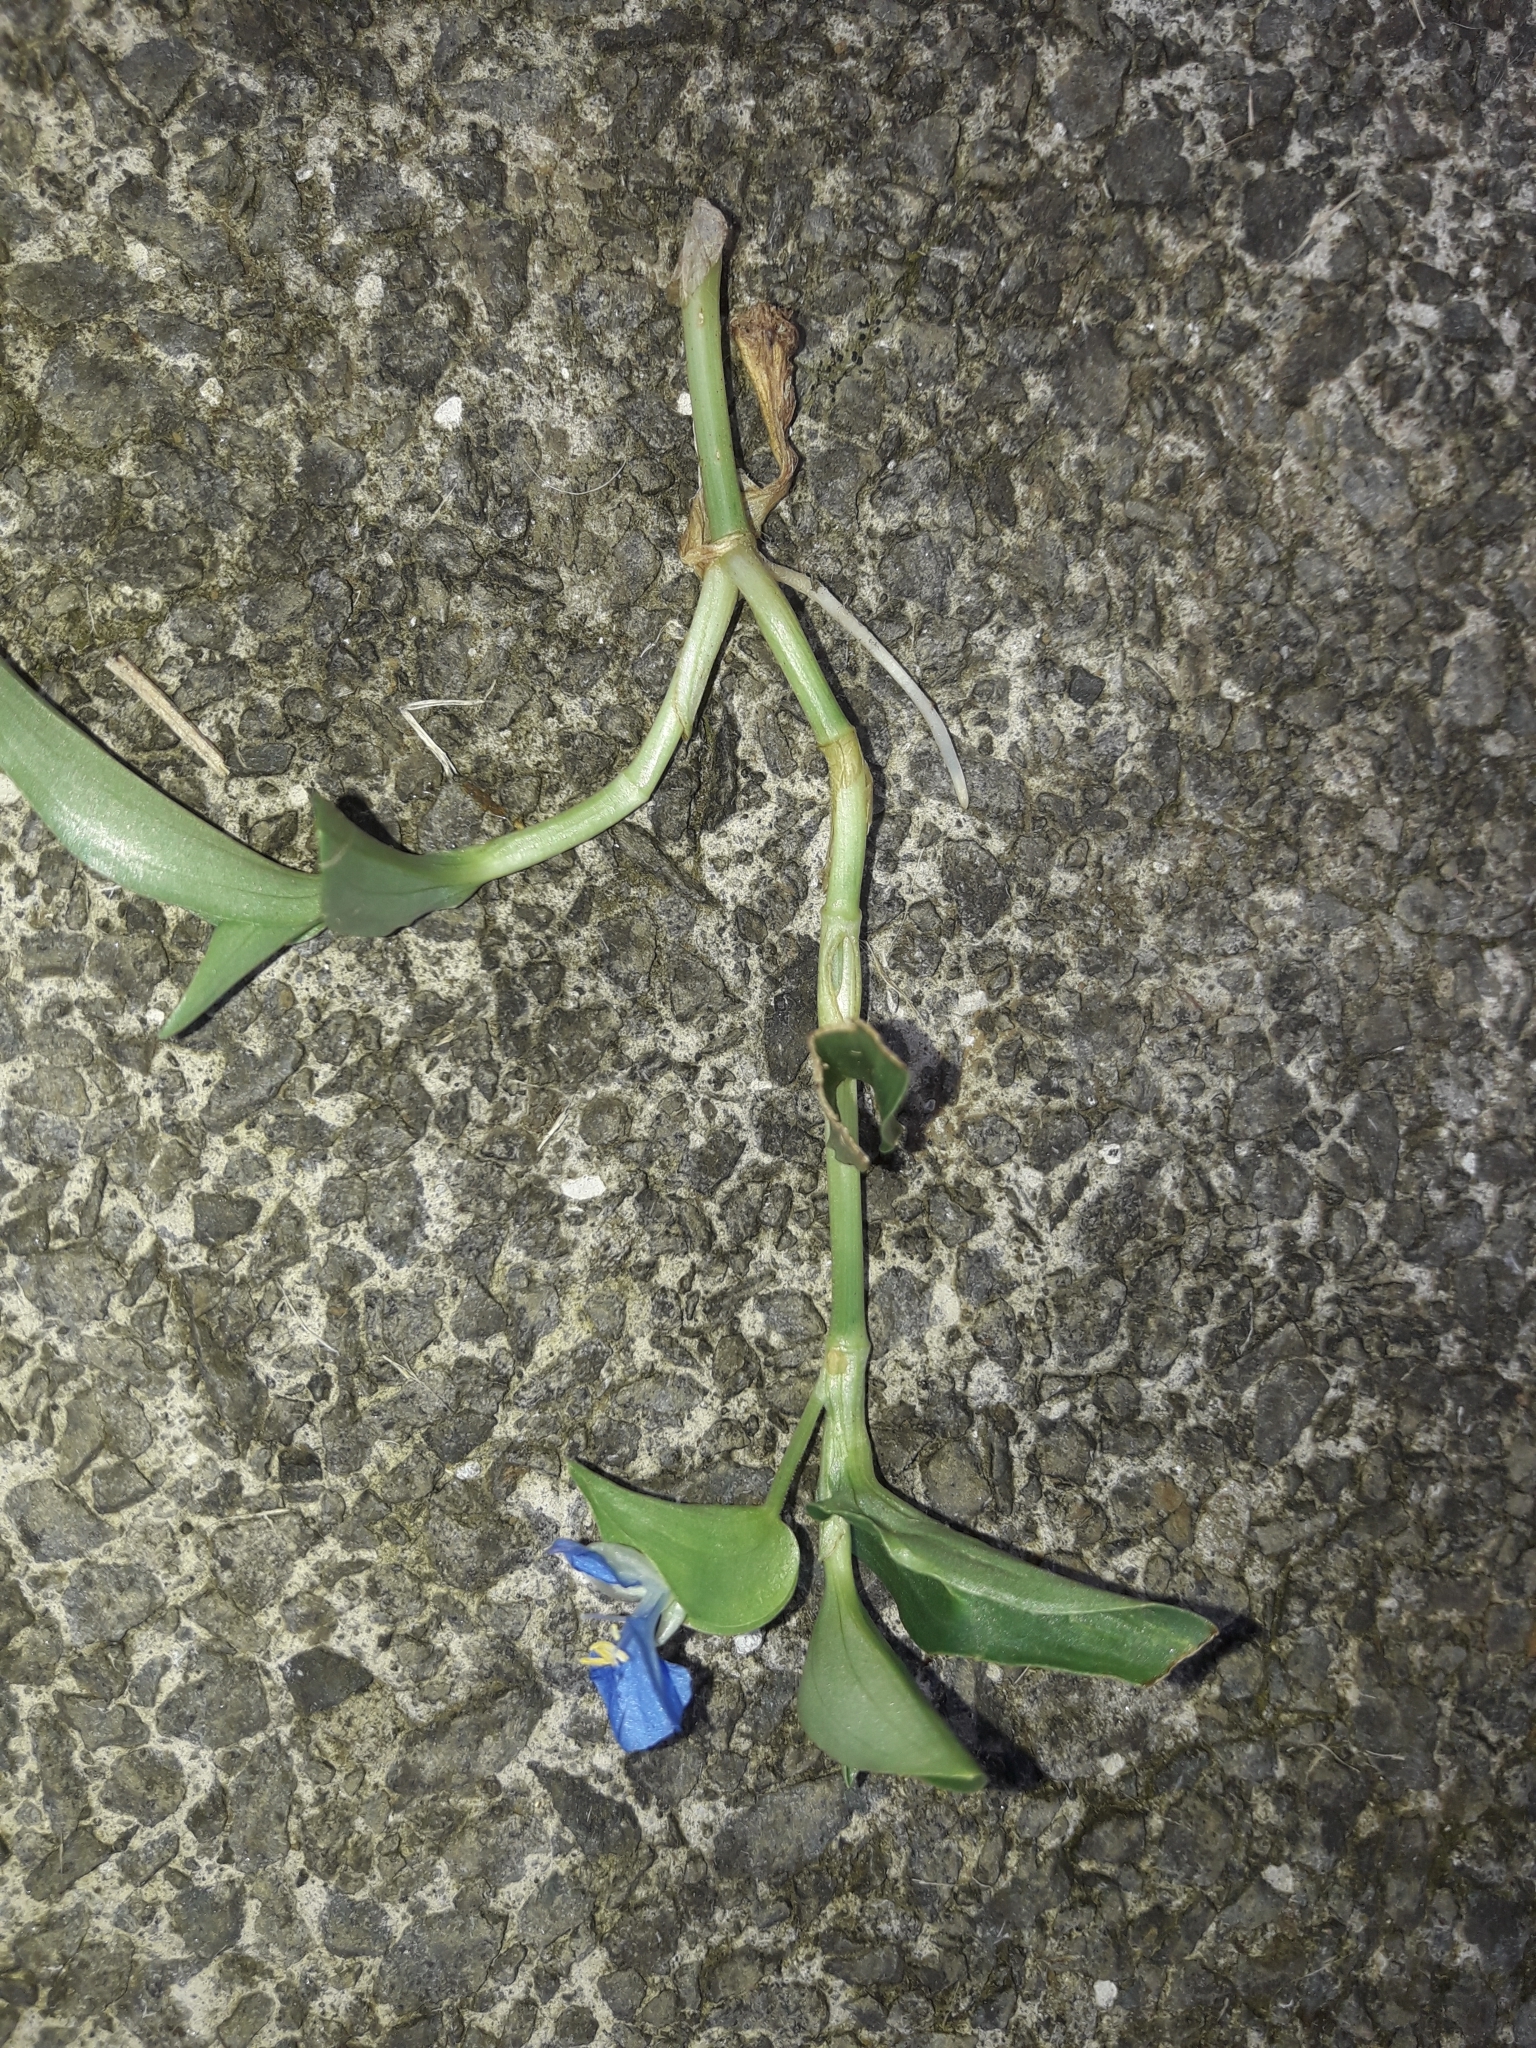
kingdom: Plantae
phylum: Tracheophyta
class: Liliopsida
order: Commelinales
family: Commelinaceae
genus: Commelina
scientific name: Commelina cyanea
